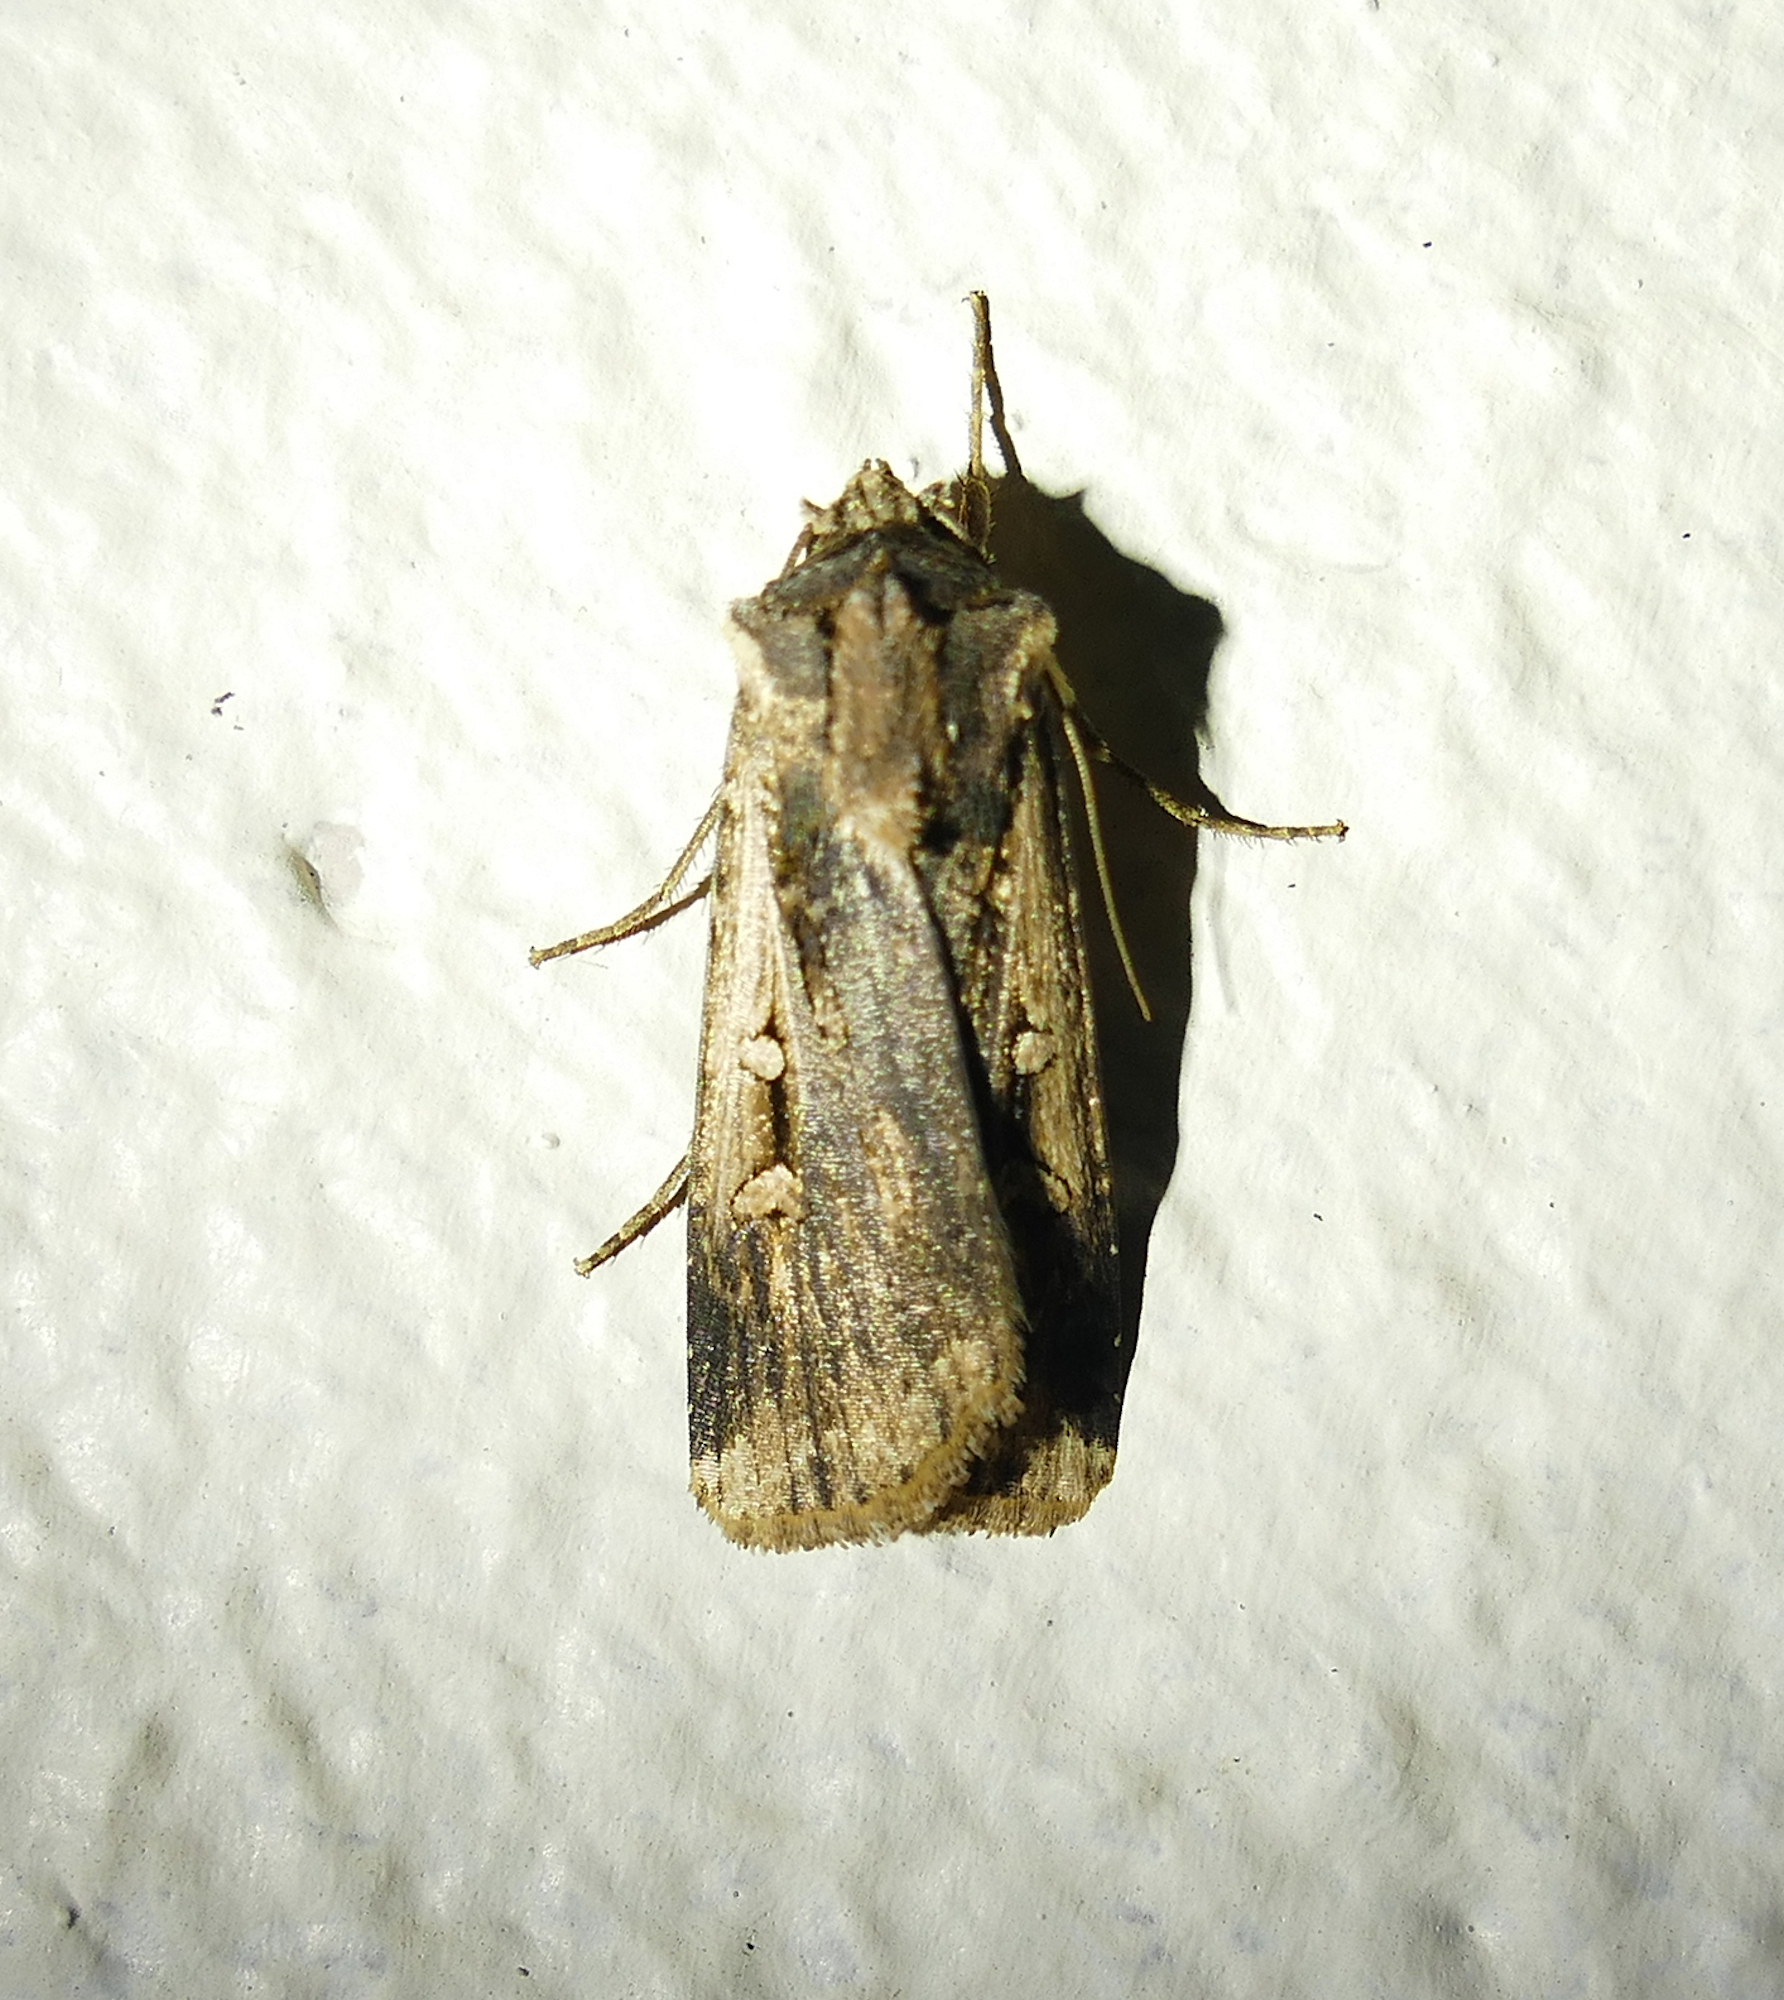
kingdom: Animalia
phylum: Arthropoda
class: Insecta
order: Lepidoptera
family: Noctuidae
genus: Feltia
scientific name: Feltia subterranea
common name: Granulate cutworm
